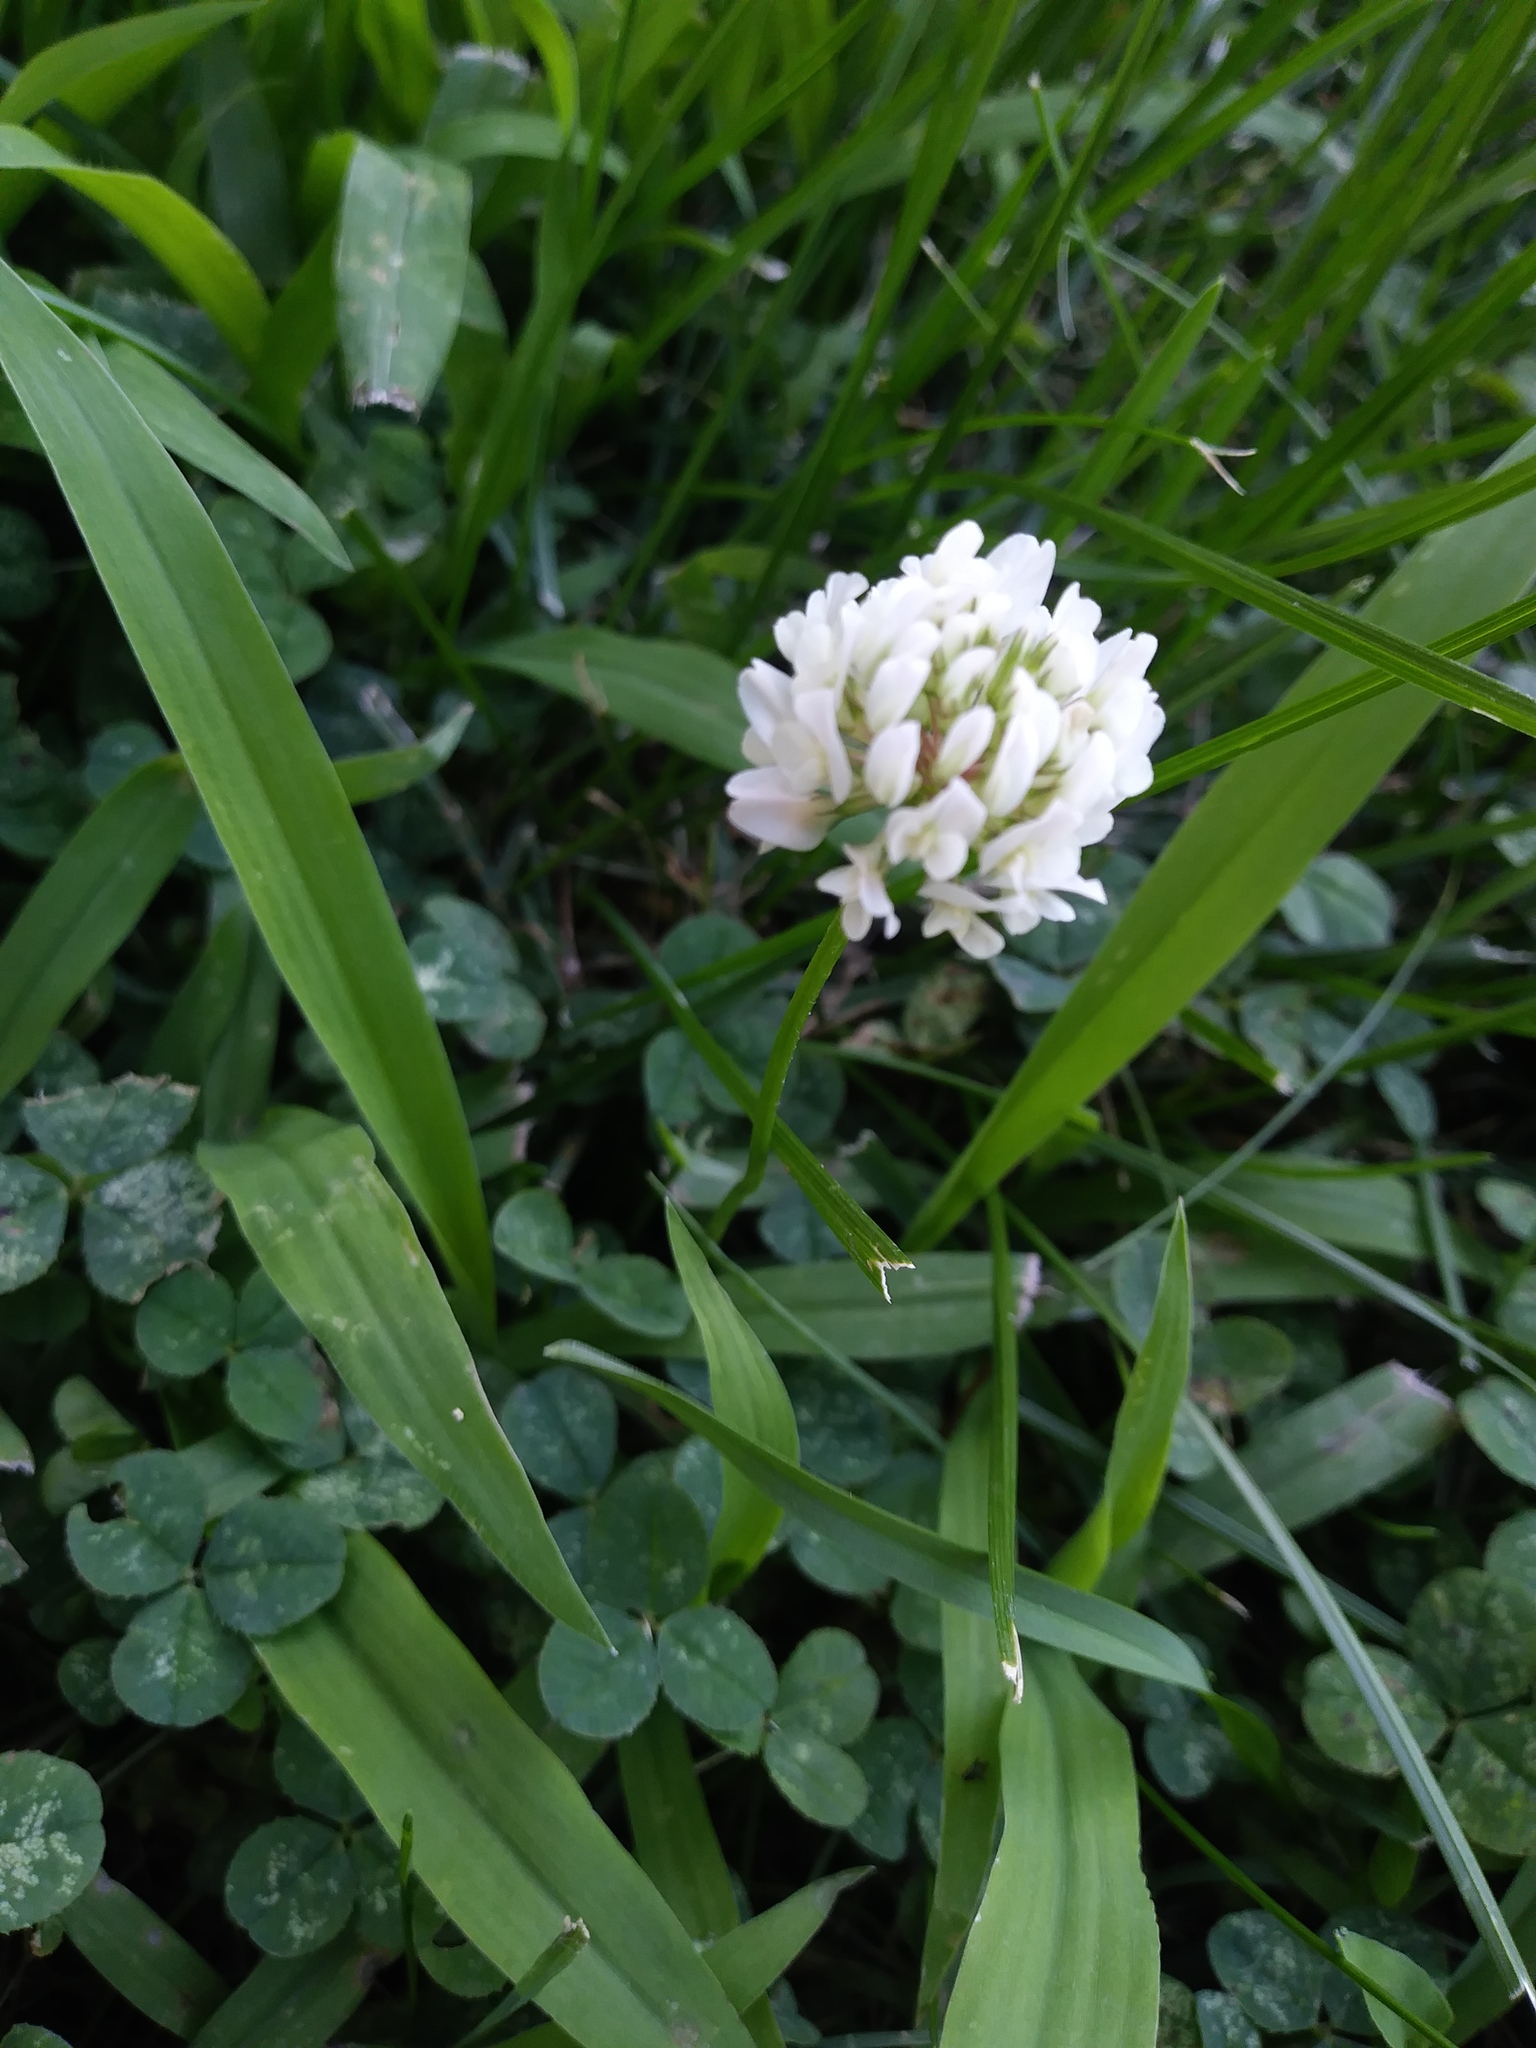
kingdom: Plantae
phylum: Tracheophyta
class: Magnoliopsida
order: Fabales
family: Fabaceae
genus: Trifolium
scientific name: Trifolium repens
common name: White clover
